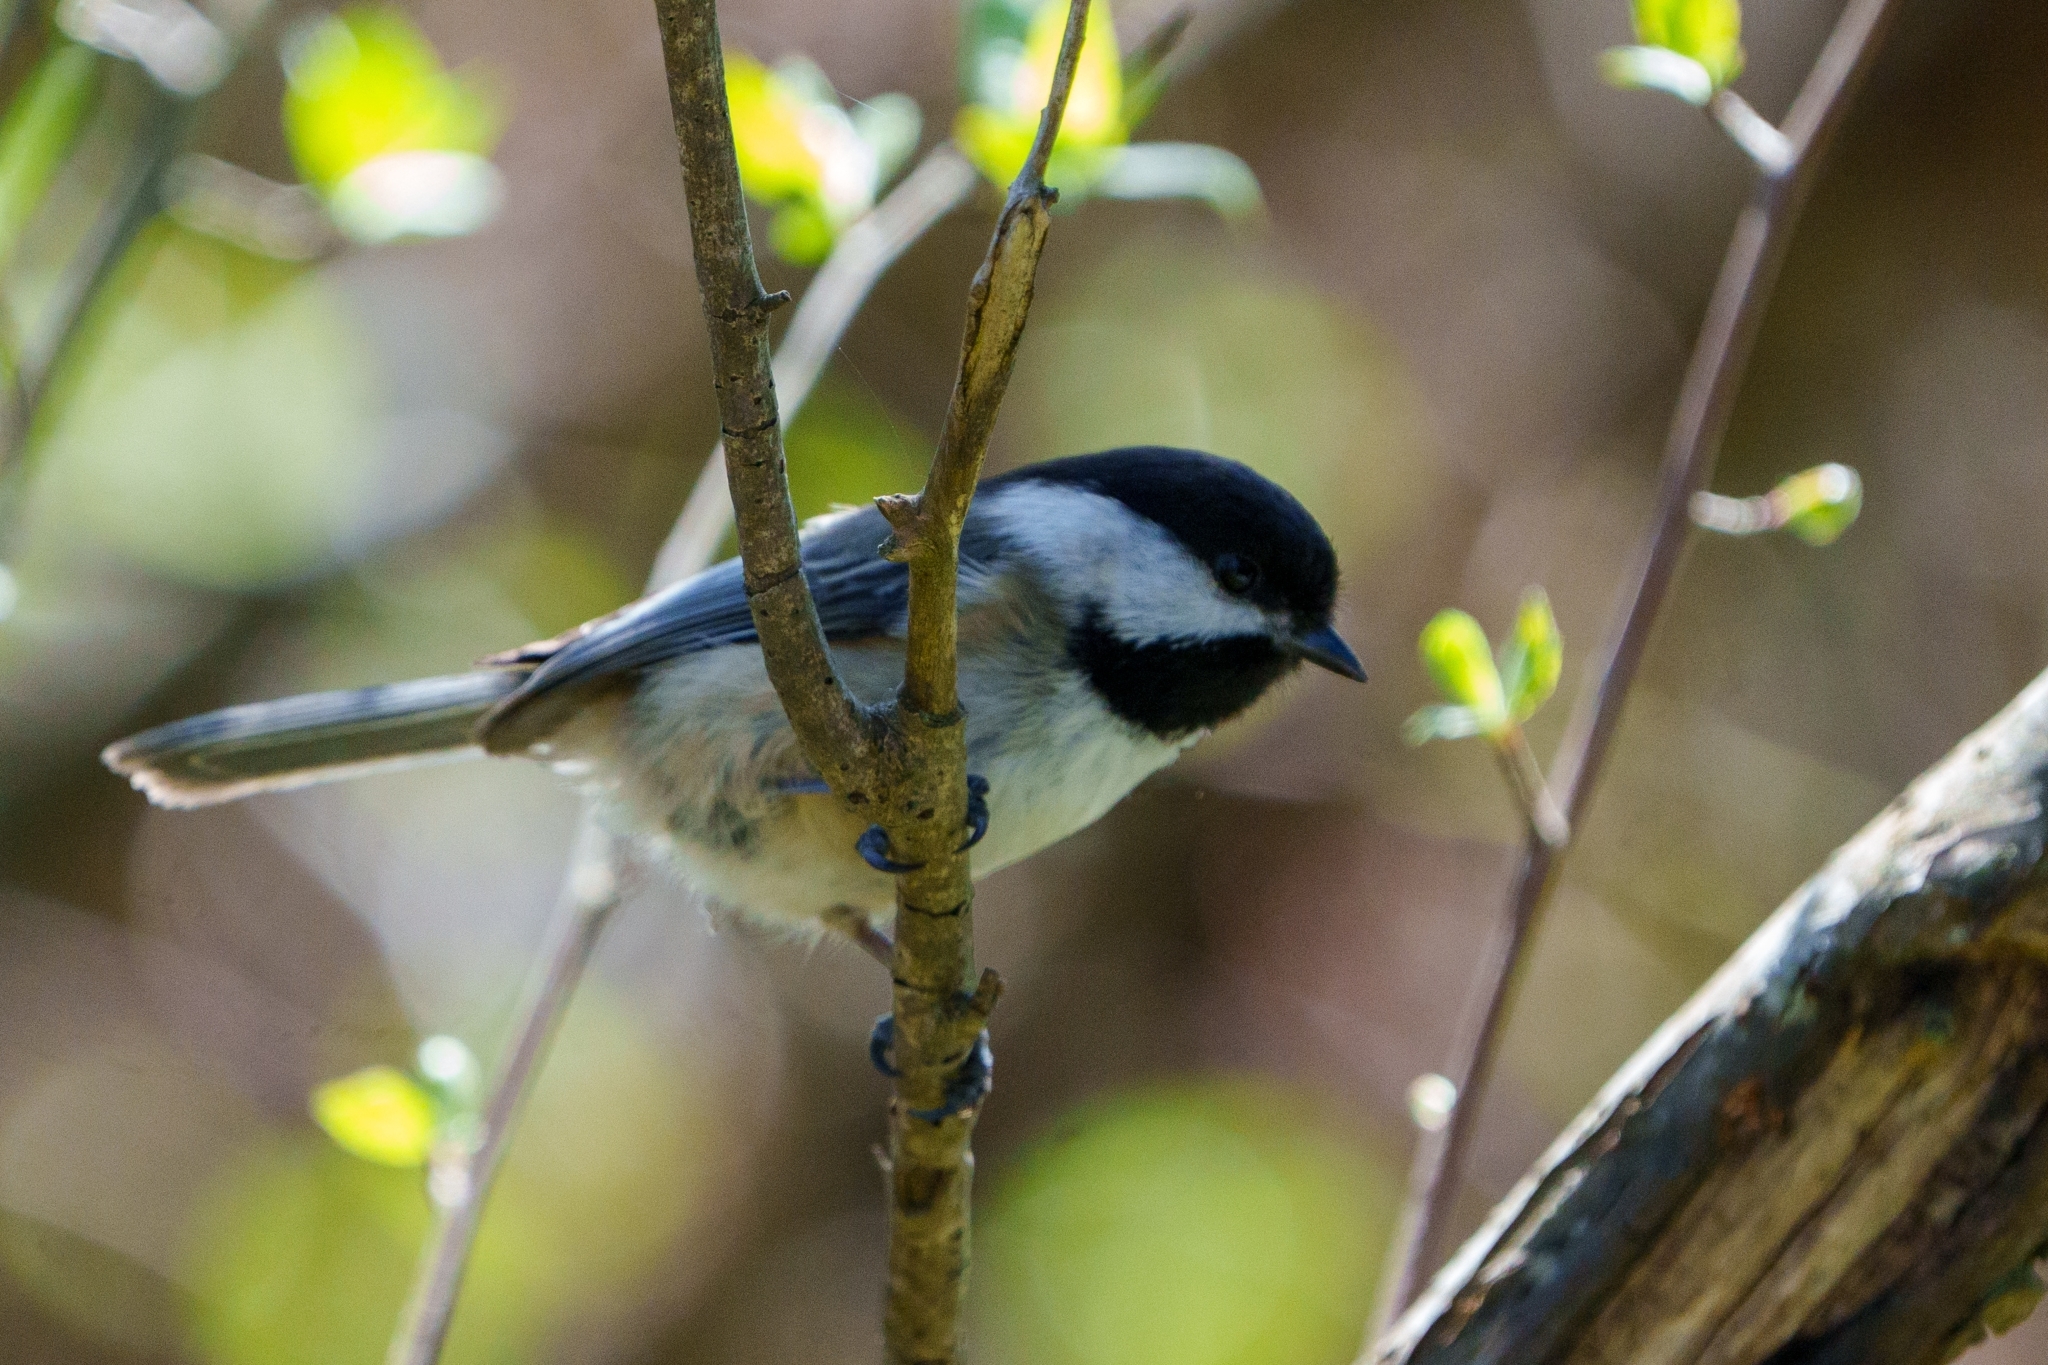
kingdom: Animalia
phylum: Chordata
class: Aves
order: Passeriformes
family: Paridae
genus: Poecile
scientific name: Poecile atricapillus
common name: Black-capped chickadee
